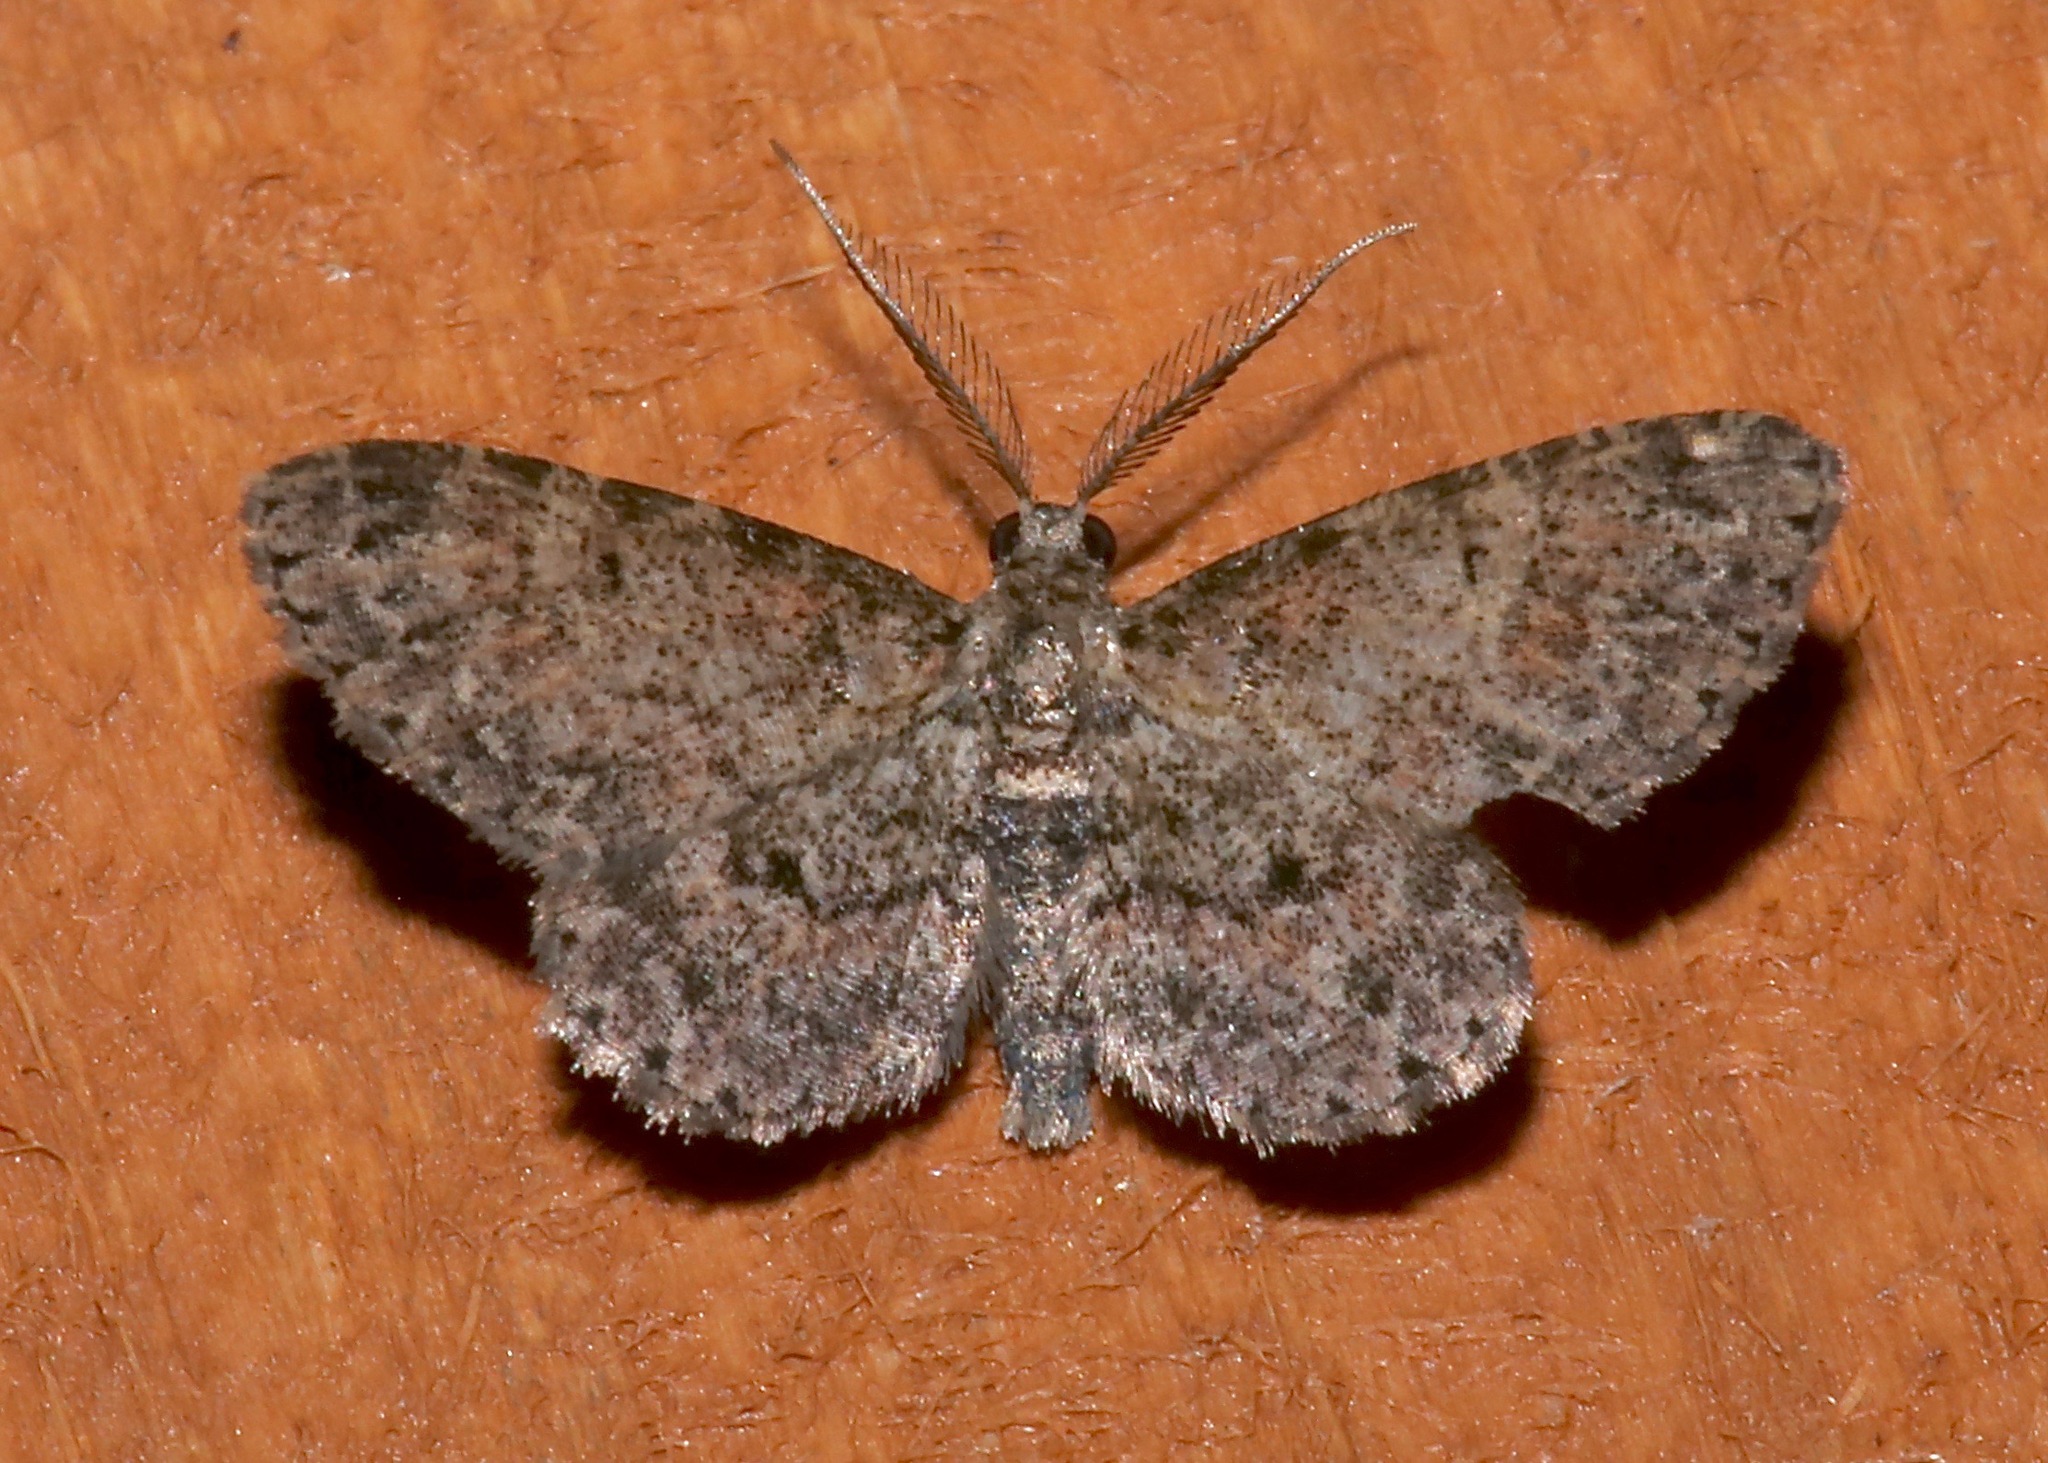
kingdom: Animalia
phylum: Arthropoda
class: Insecta
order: Lepidoptera
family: Geometridae
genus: Glenoides
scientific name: Glenoides texanaria
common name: Texas gray
